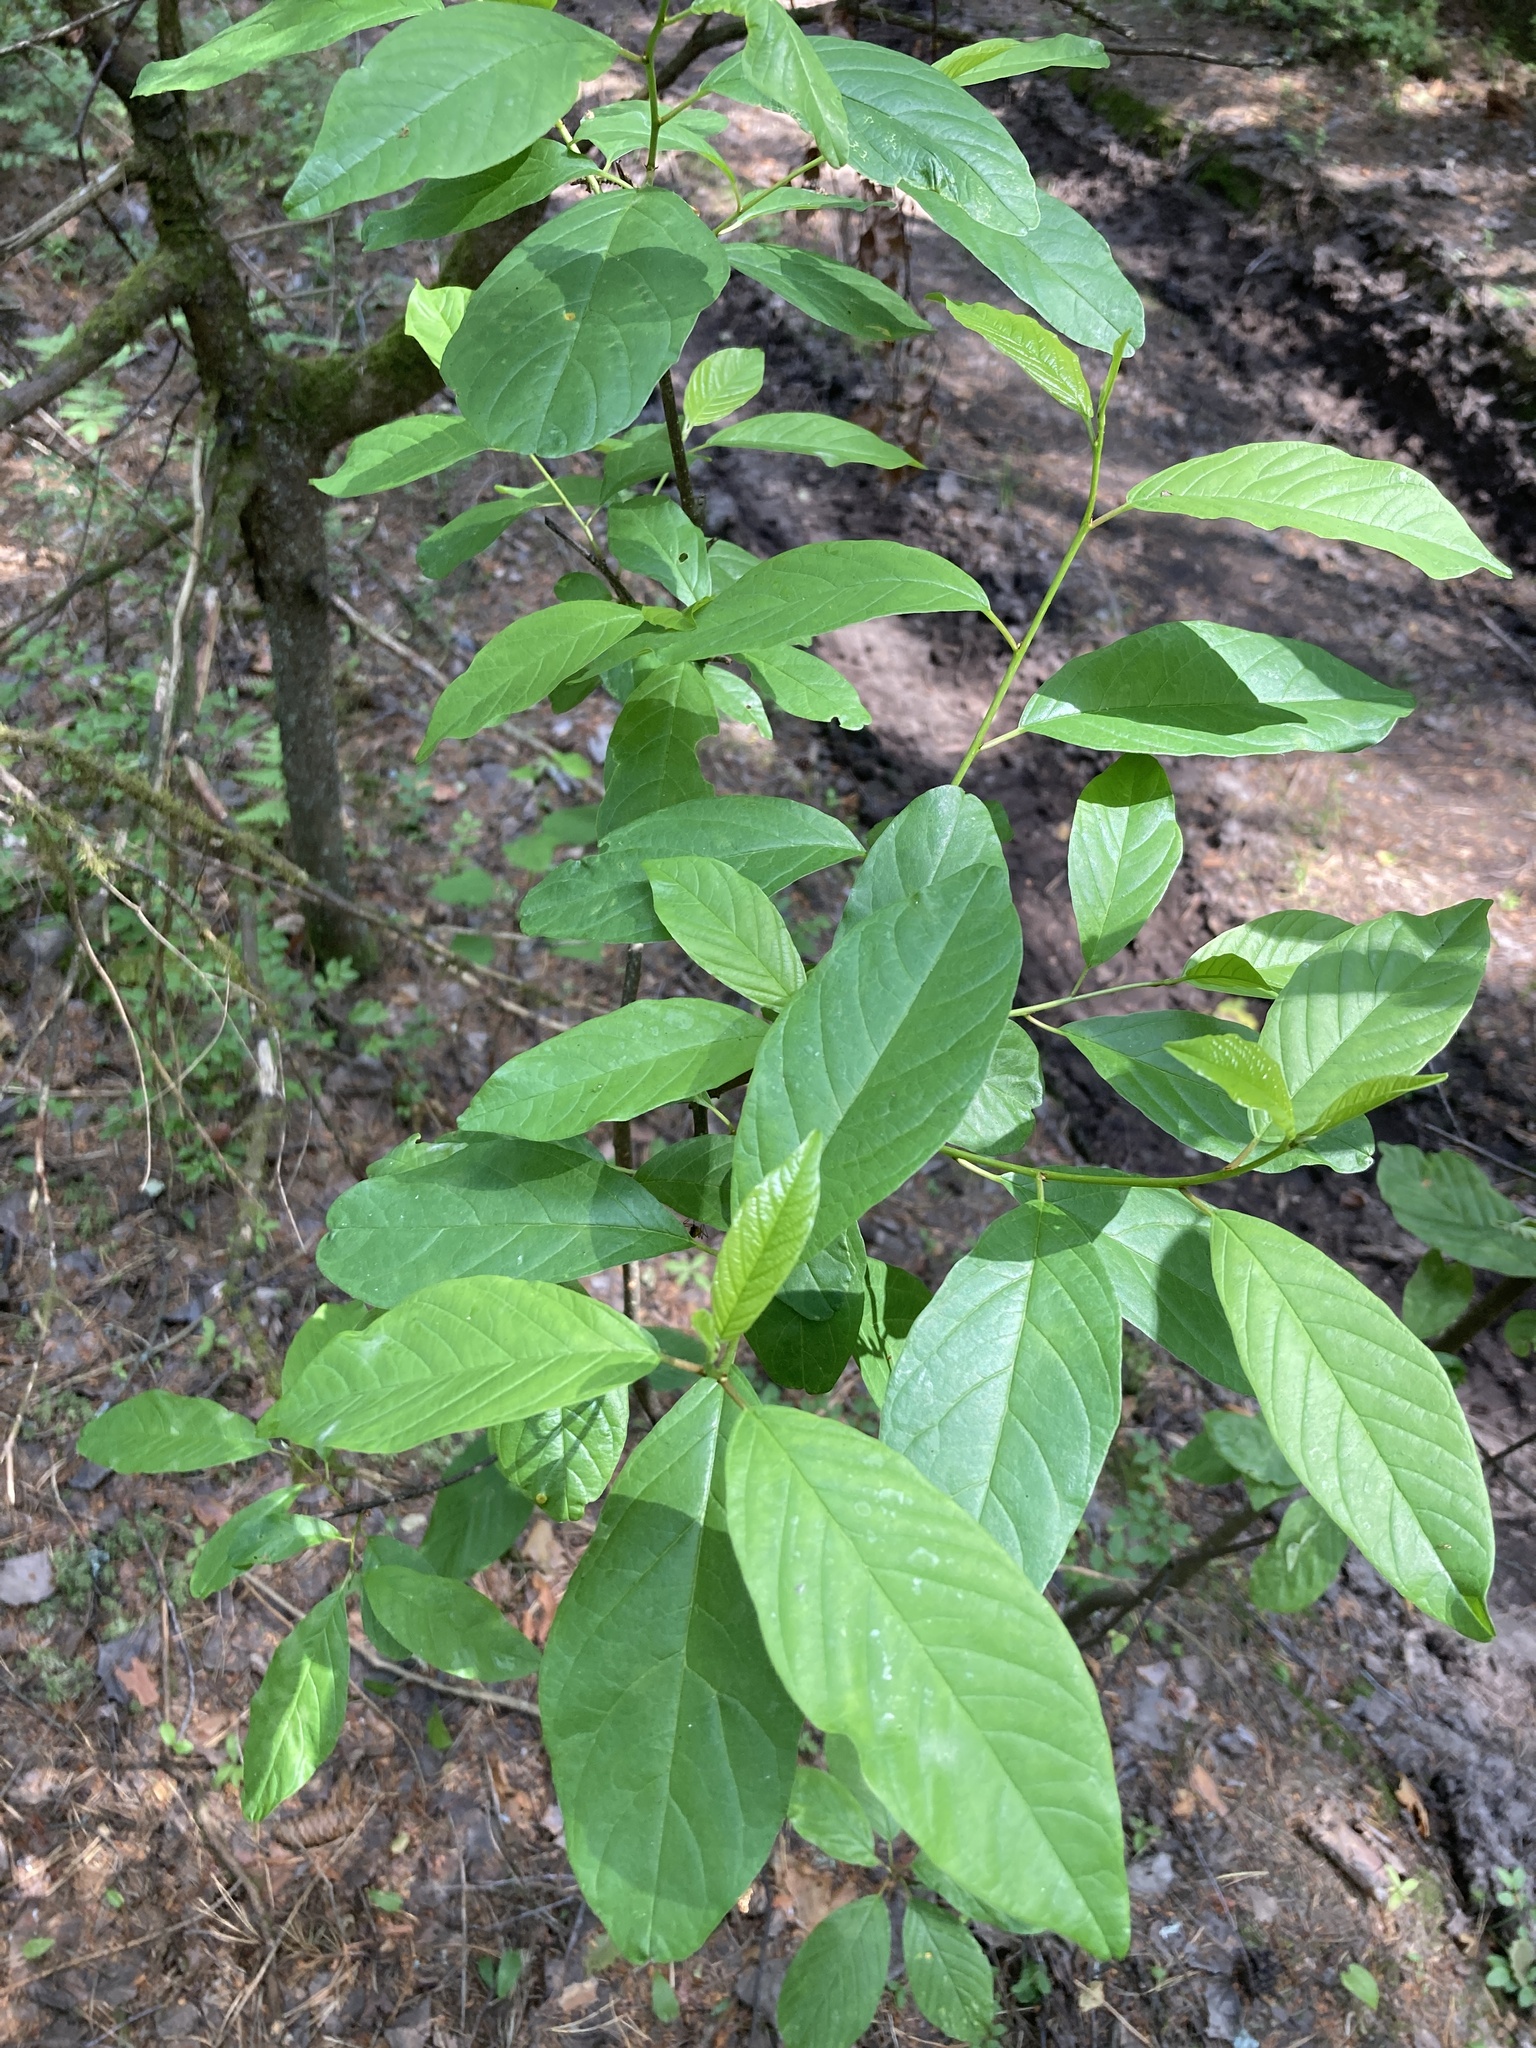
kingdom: Plantae
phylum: Tracheophyta
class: Magnoliopsida
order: Rosales
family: Rhamnaceae
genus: Frangula
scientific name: Frangula alnus
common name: Alder buckthorn
